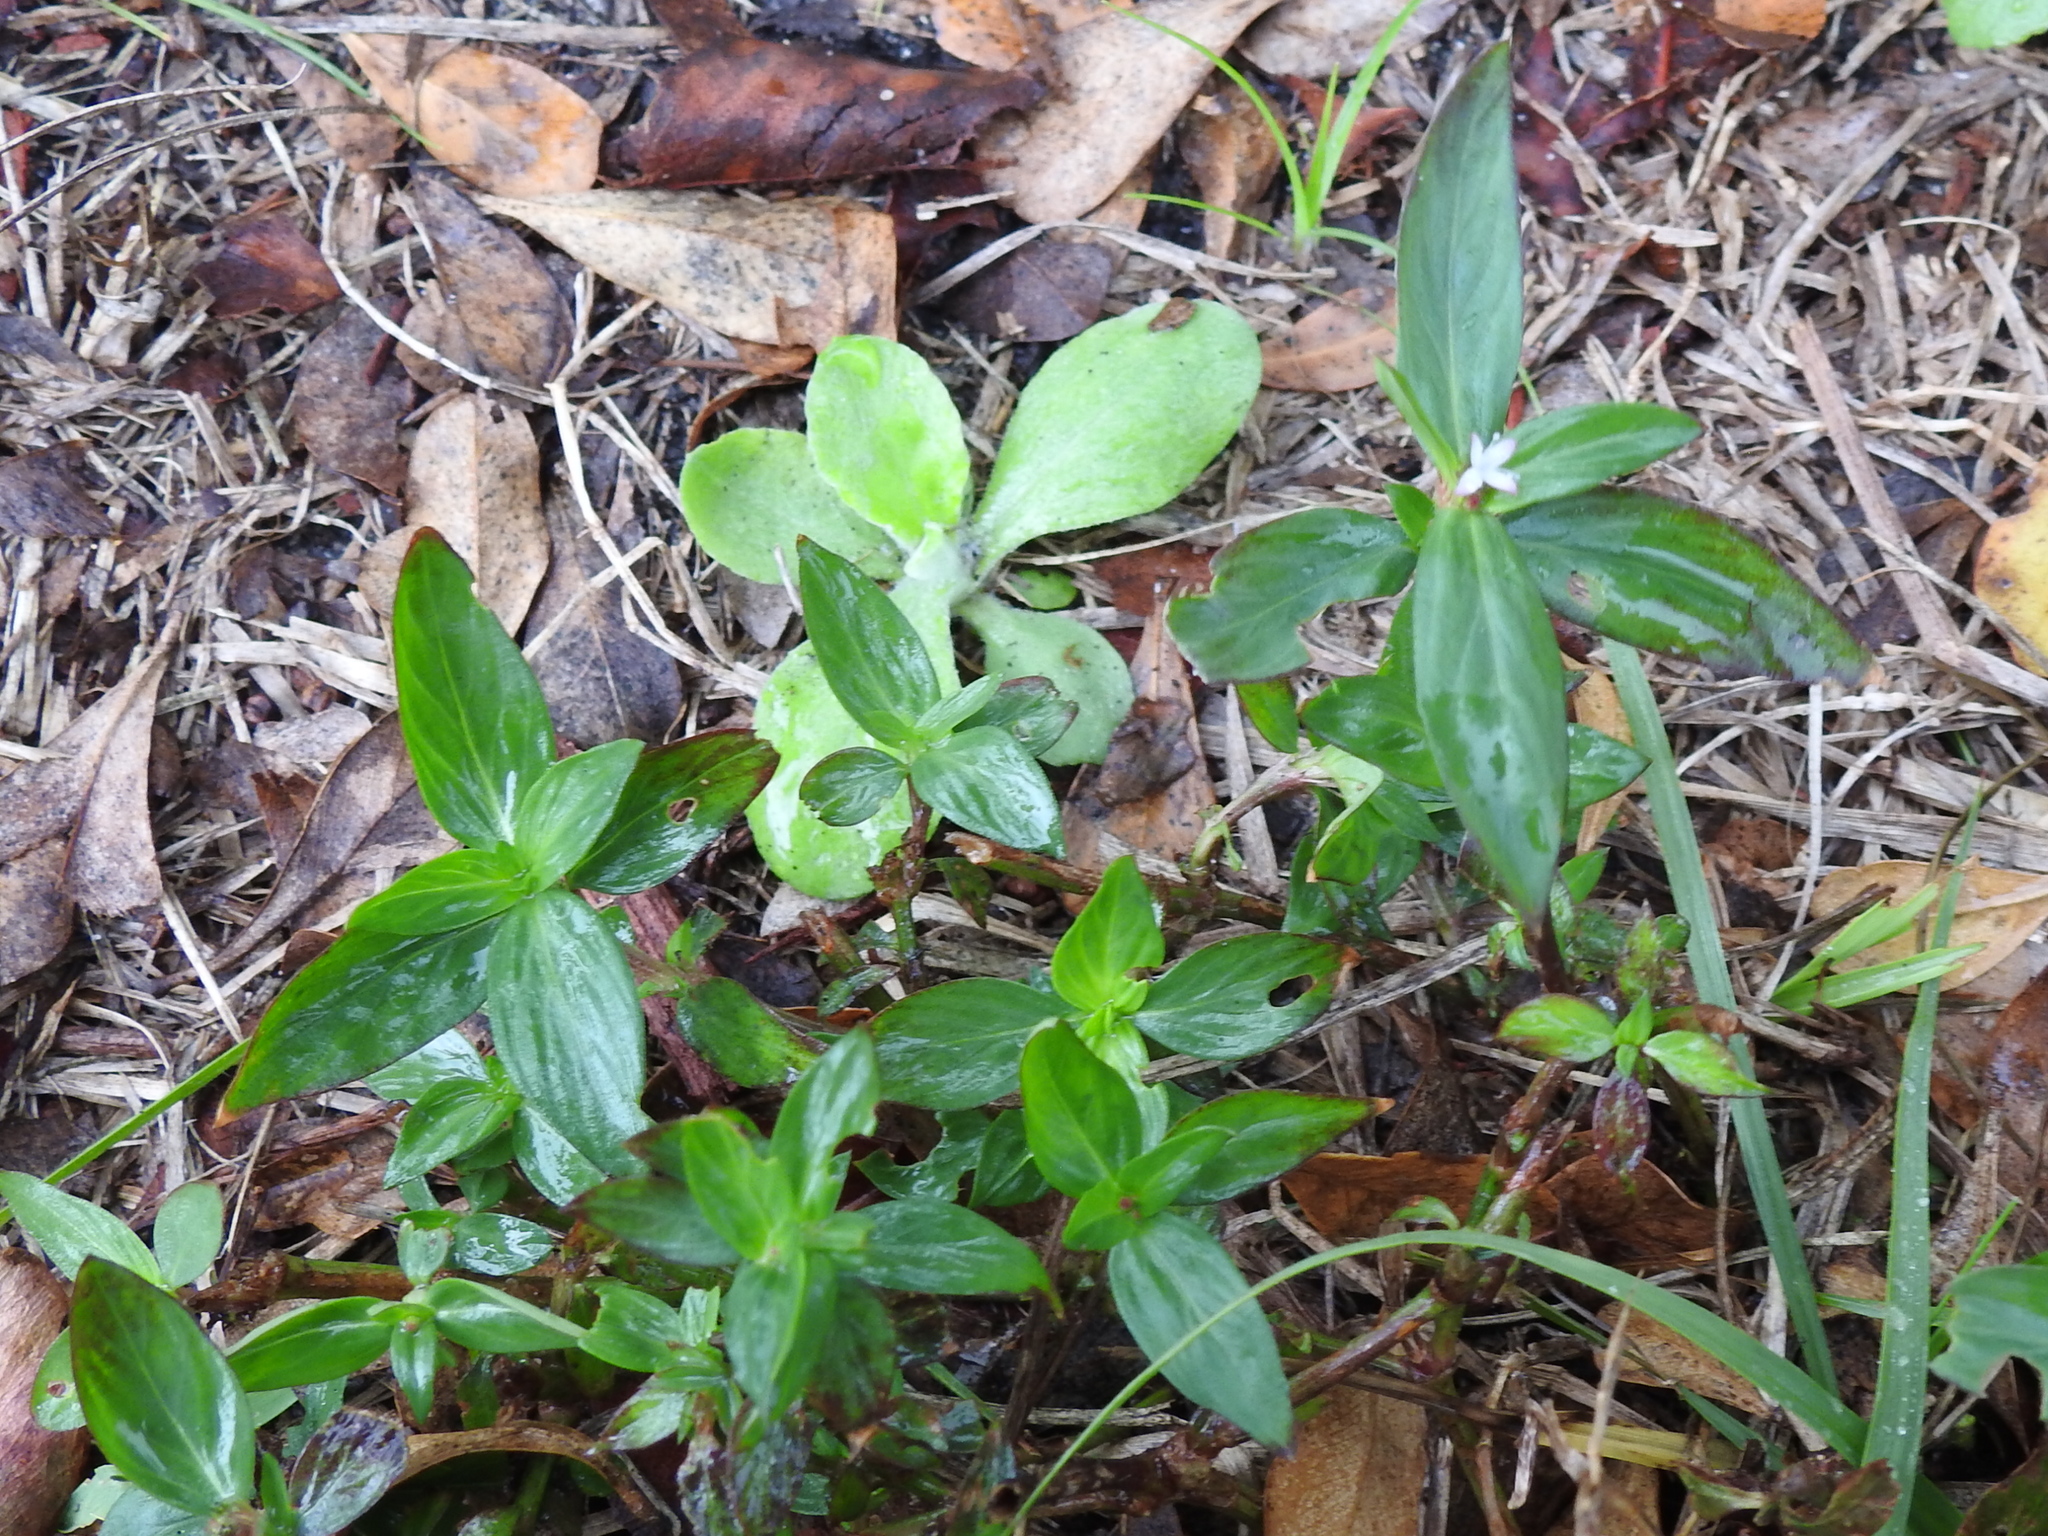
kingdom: Plantae
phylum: Tracheophyta
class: Magnoliopsida
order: Gentianales
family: Rubiaceae
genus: Spermacoce
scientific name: Spermacoce remota
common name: Woodland false buttonweed
